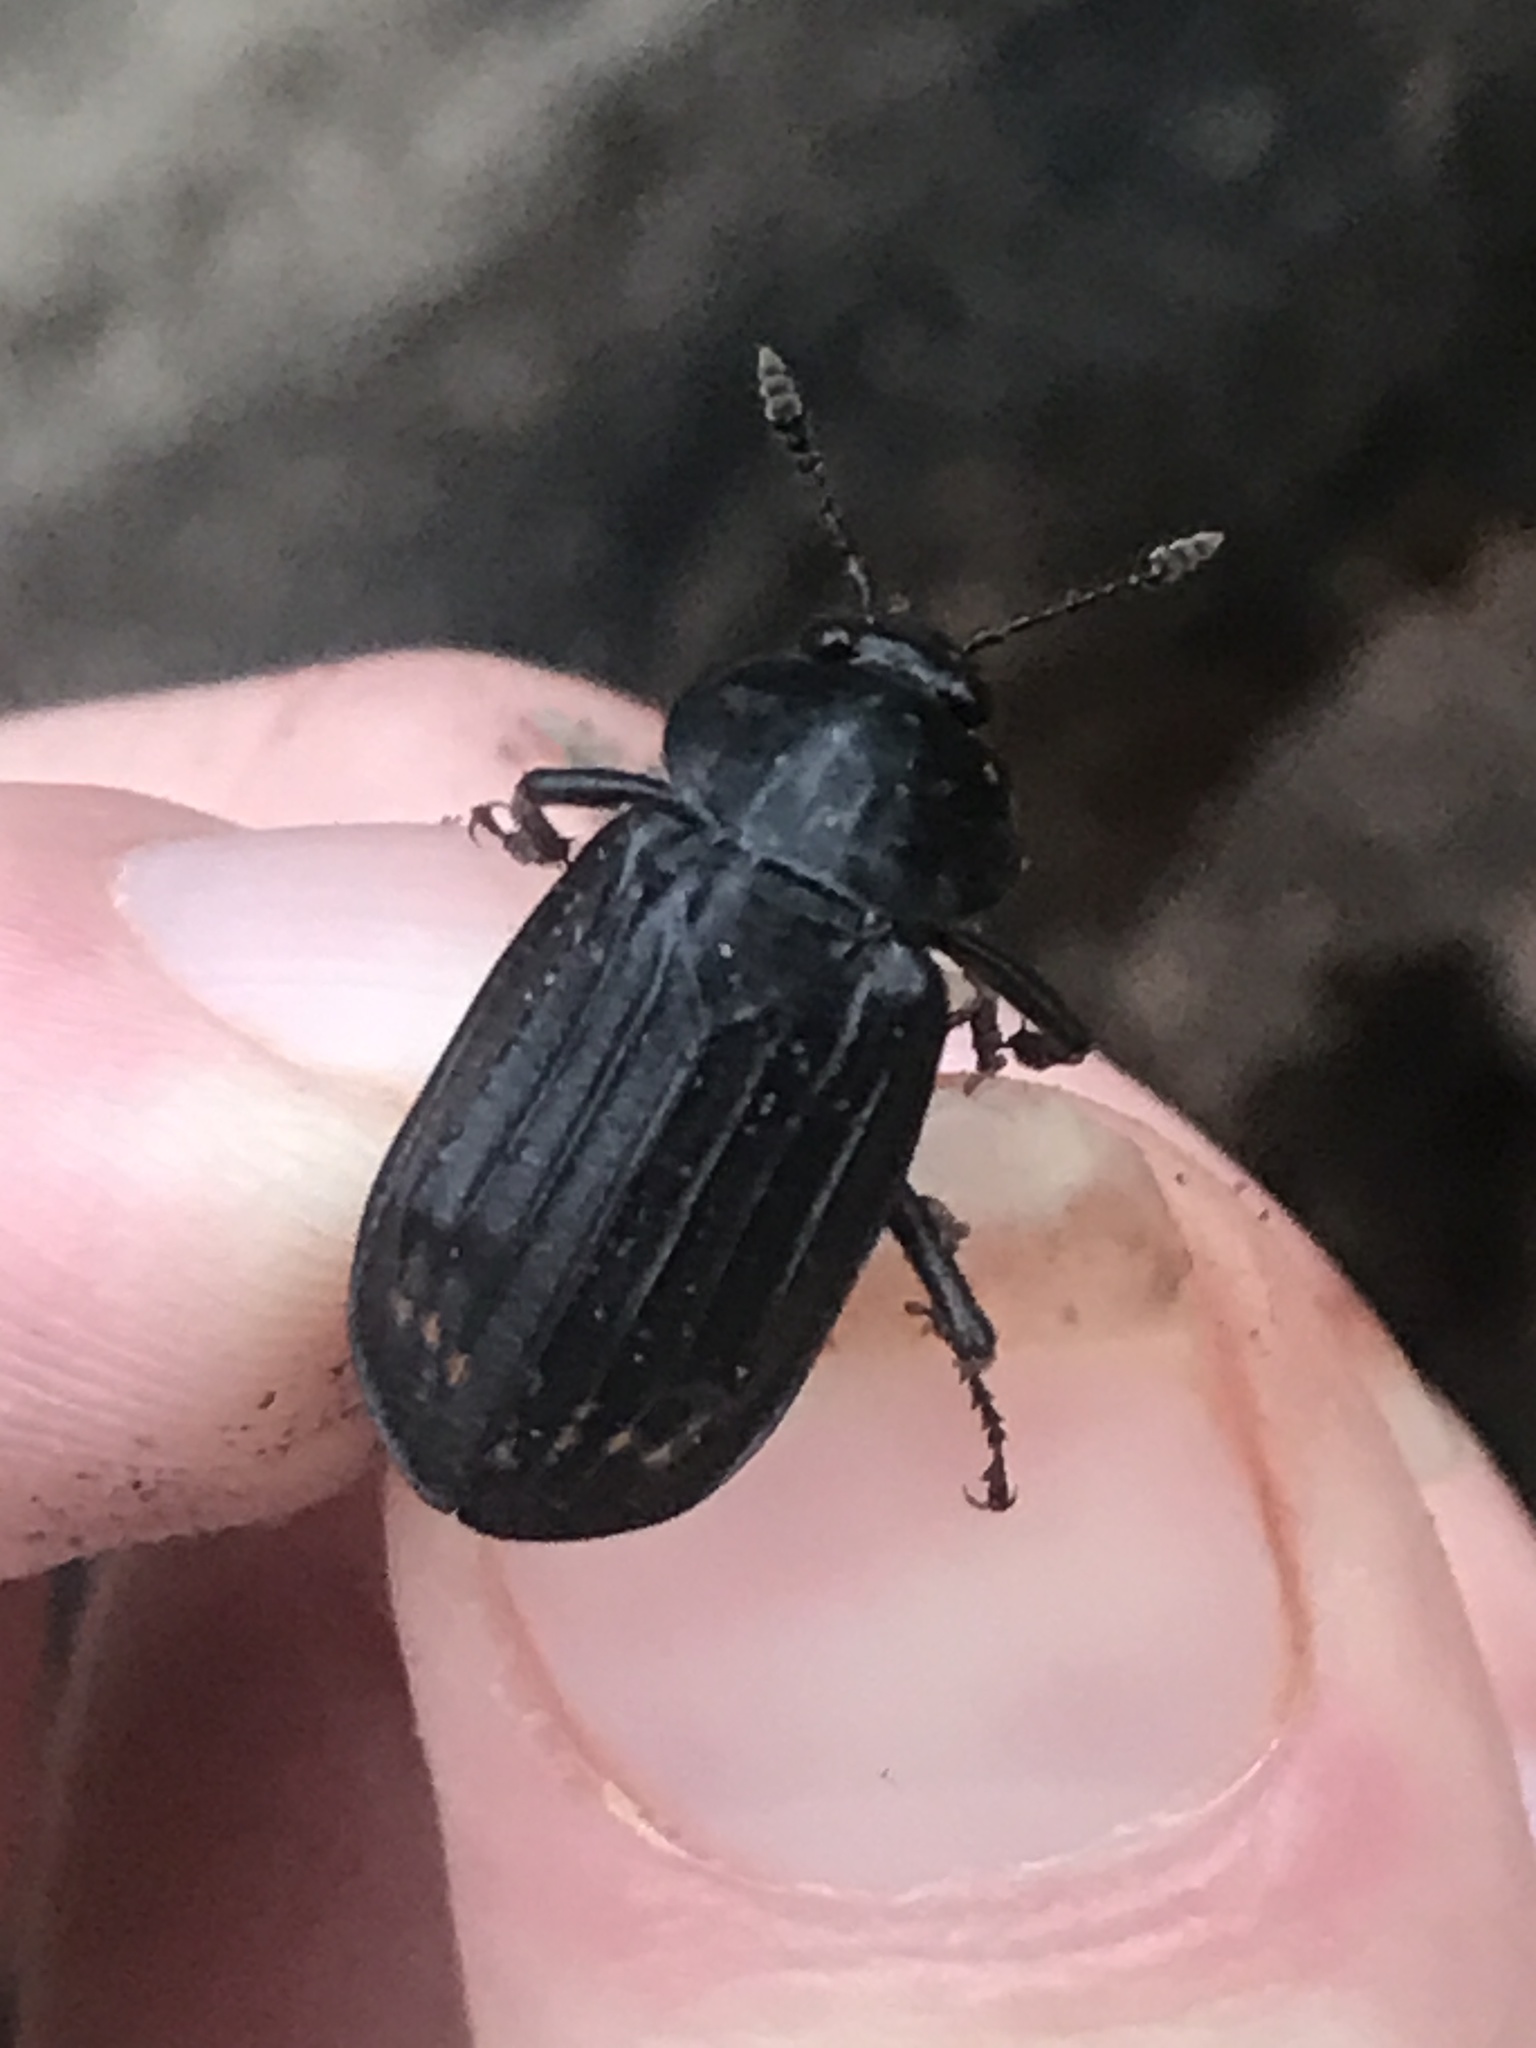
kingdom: Animalia
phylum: Arthropoda
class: Insecta
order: Coleoptera
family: Staphylinidae
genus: Necrodes
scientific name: Necrodes surinamensis
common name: Red-lined carrion beetle
